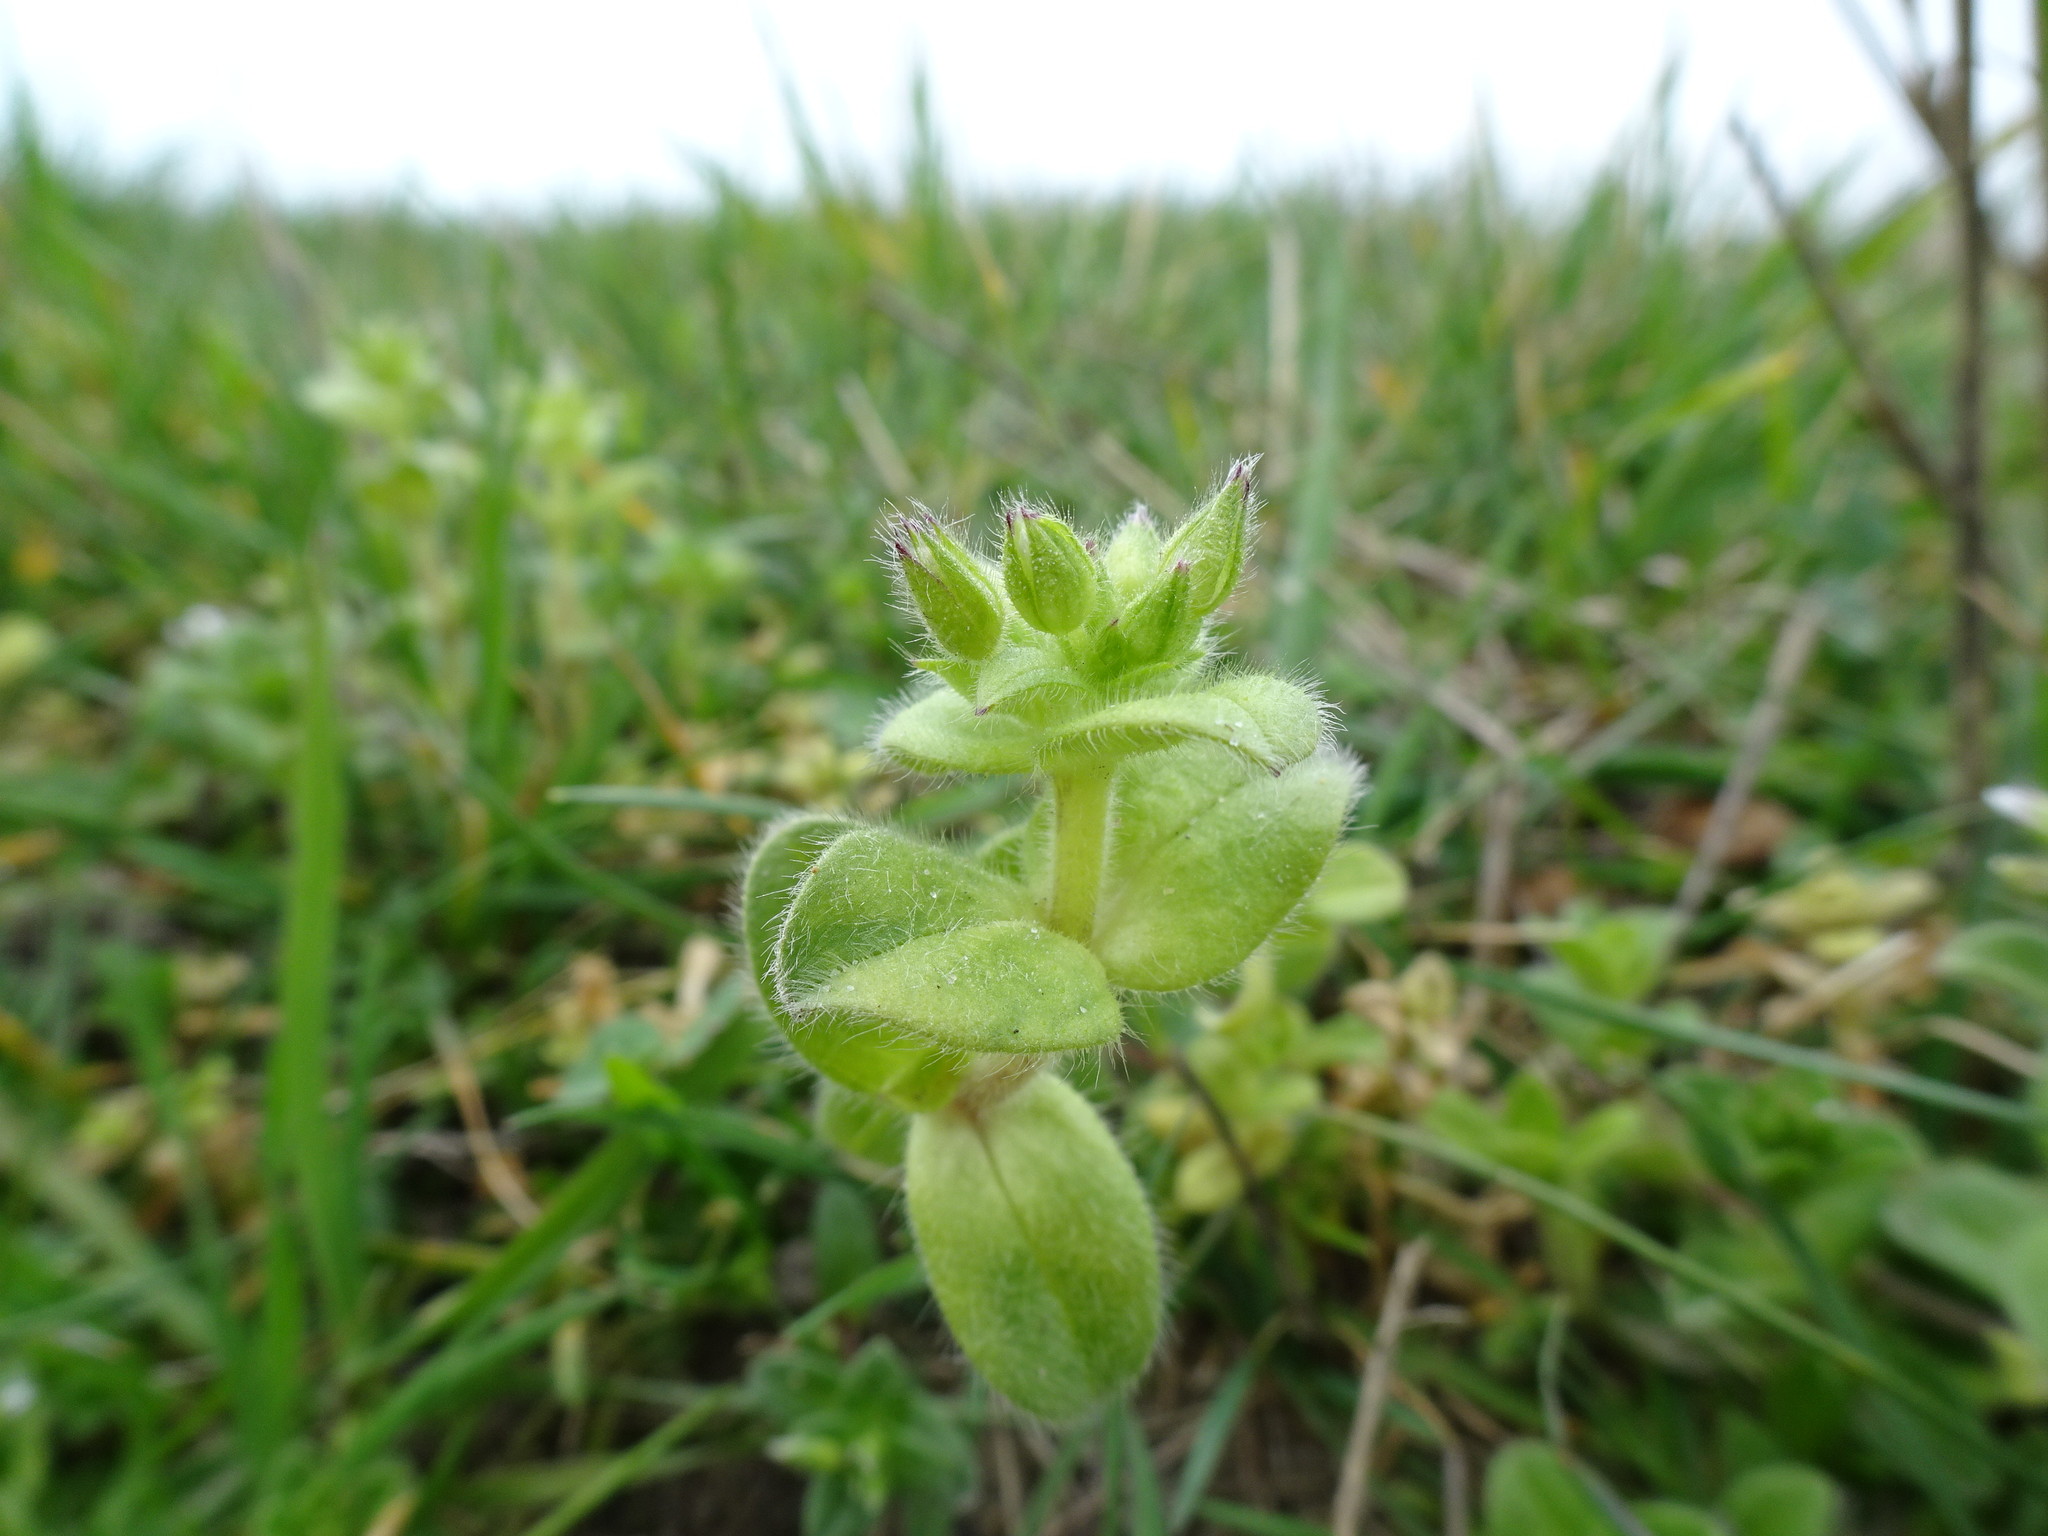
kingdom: Plantae
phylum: Tracheophyta
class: Magnoliopsida
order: Caryophyllales
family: Caryophyllaceae
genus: Cerastium
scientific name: Cerastium glomeratum
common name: Sticky chickweed
